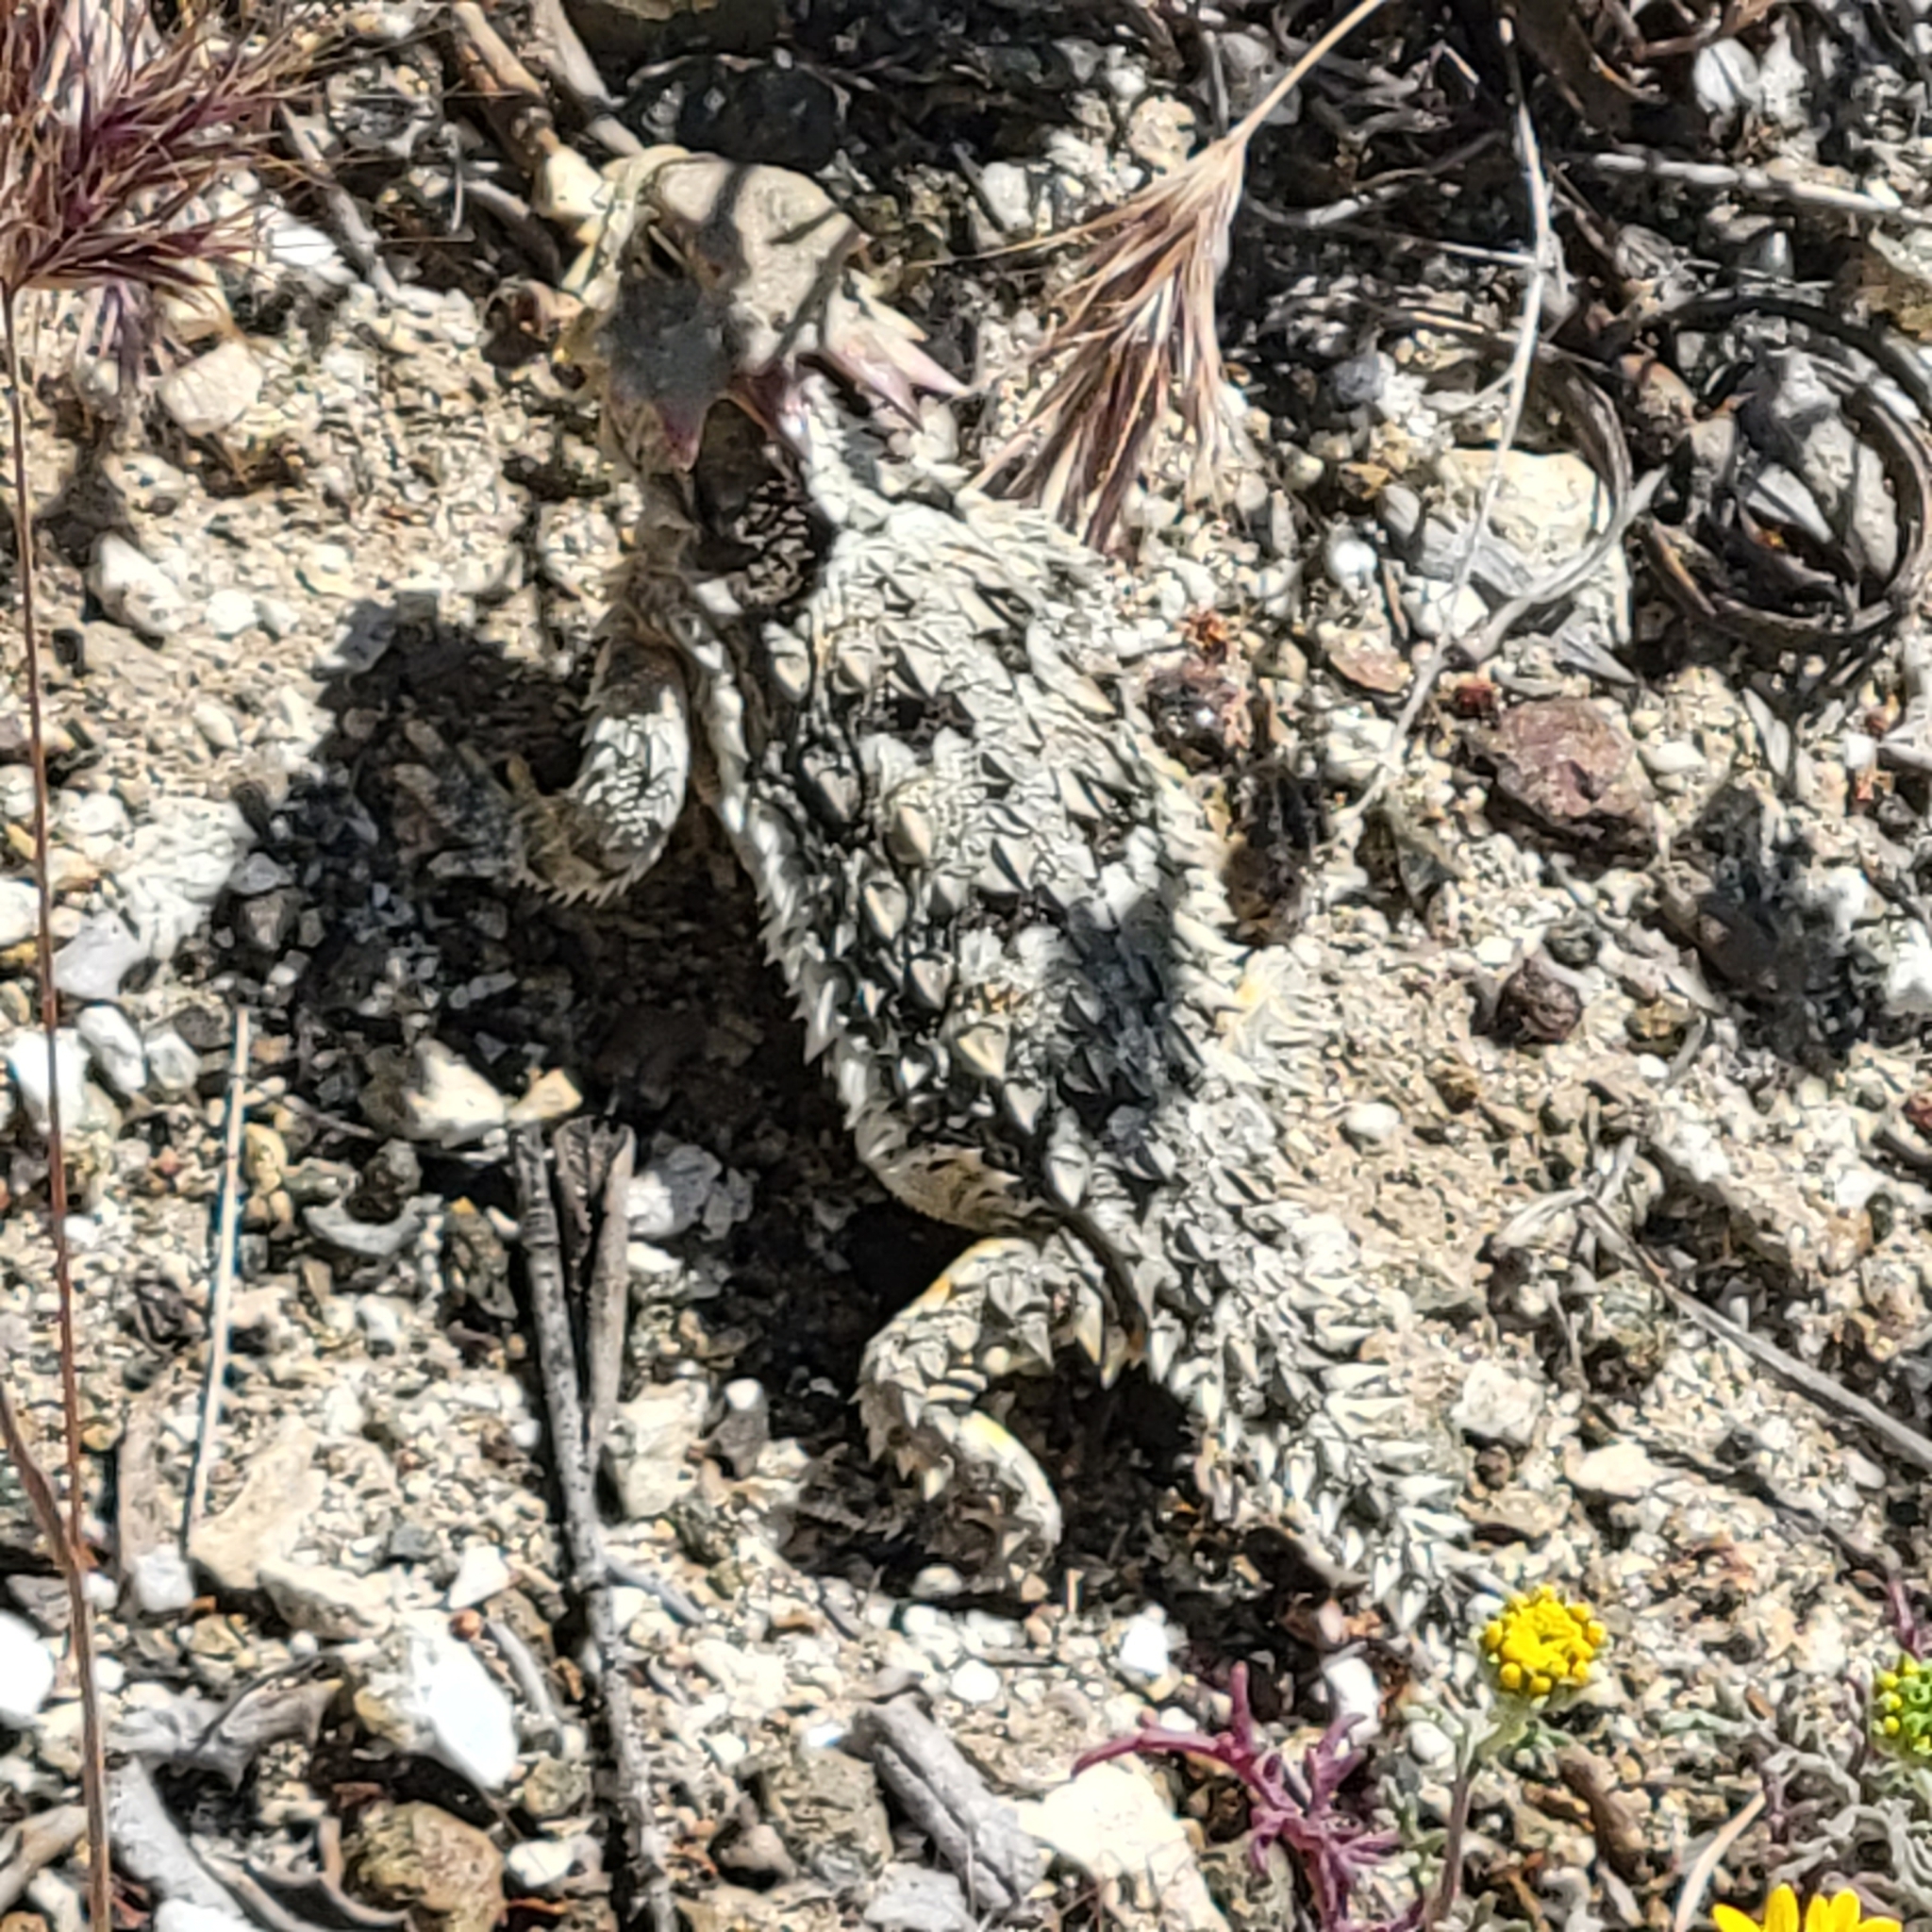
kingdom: Animalia
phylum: Chordata
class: Squamata
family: Phrynosomatidae
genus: Phrynosoma
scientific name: Phrynosoma blainvillii
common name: San diego horned lizard
